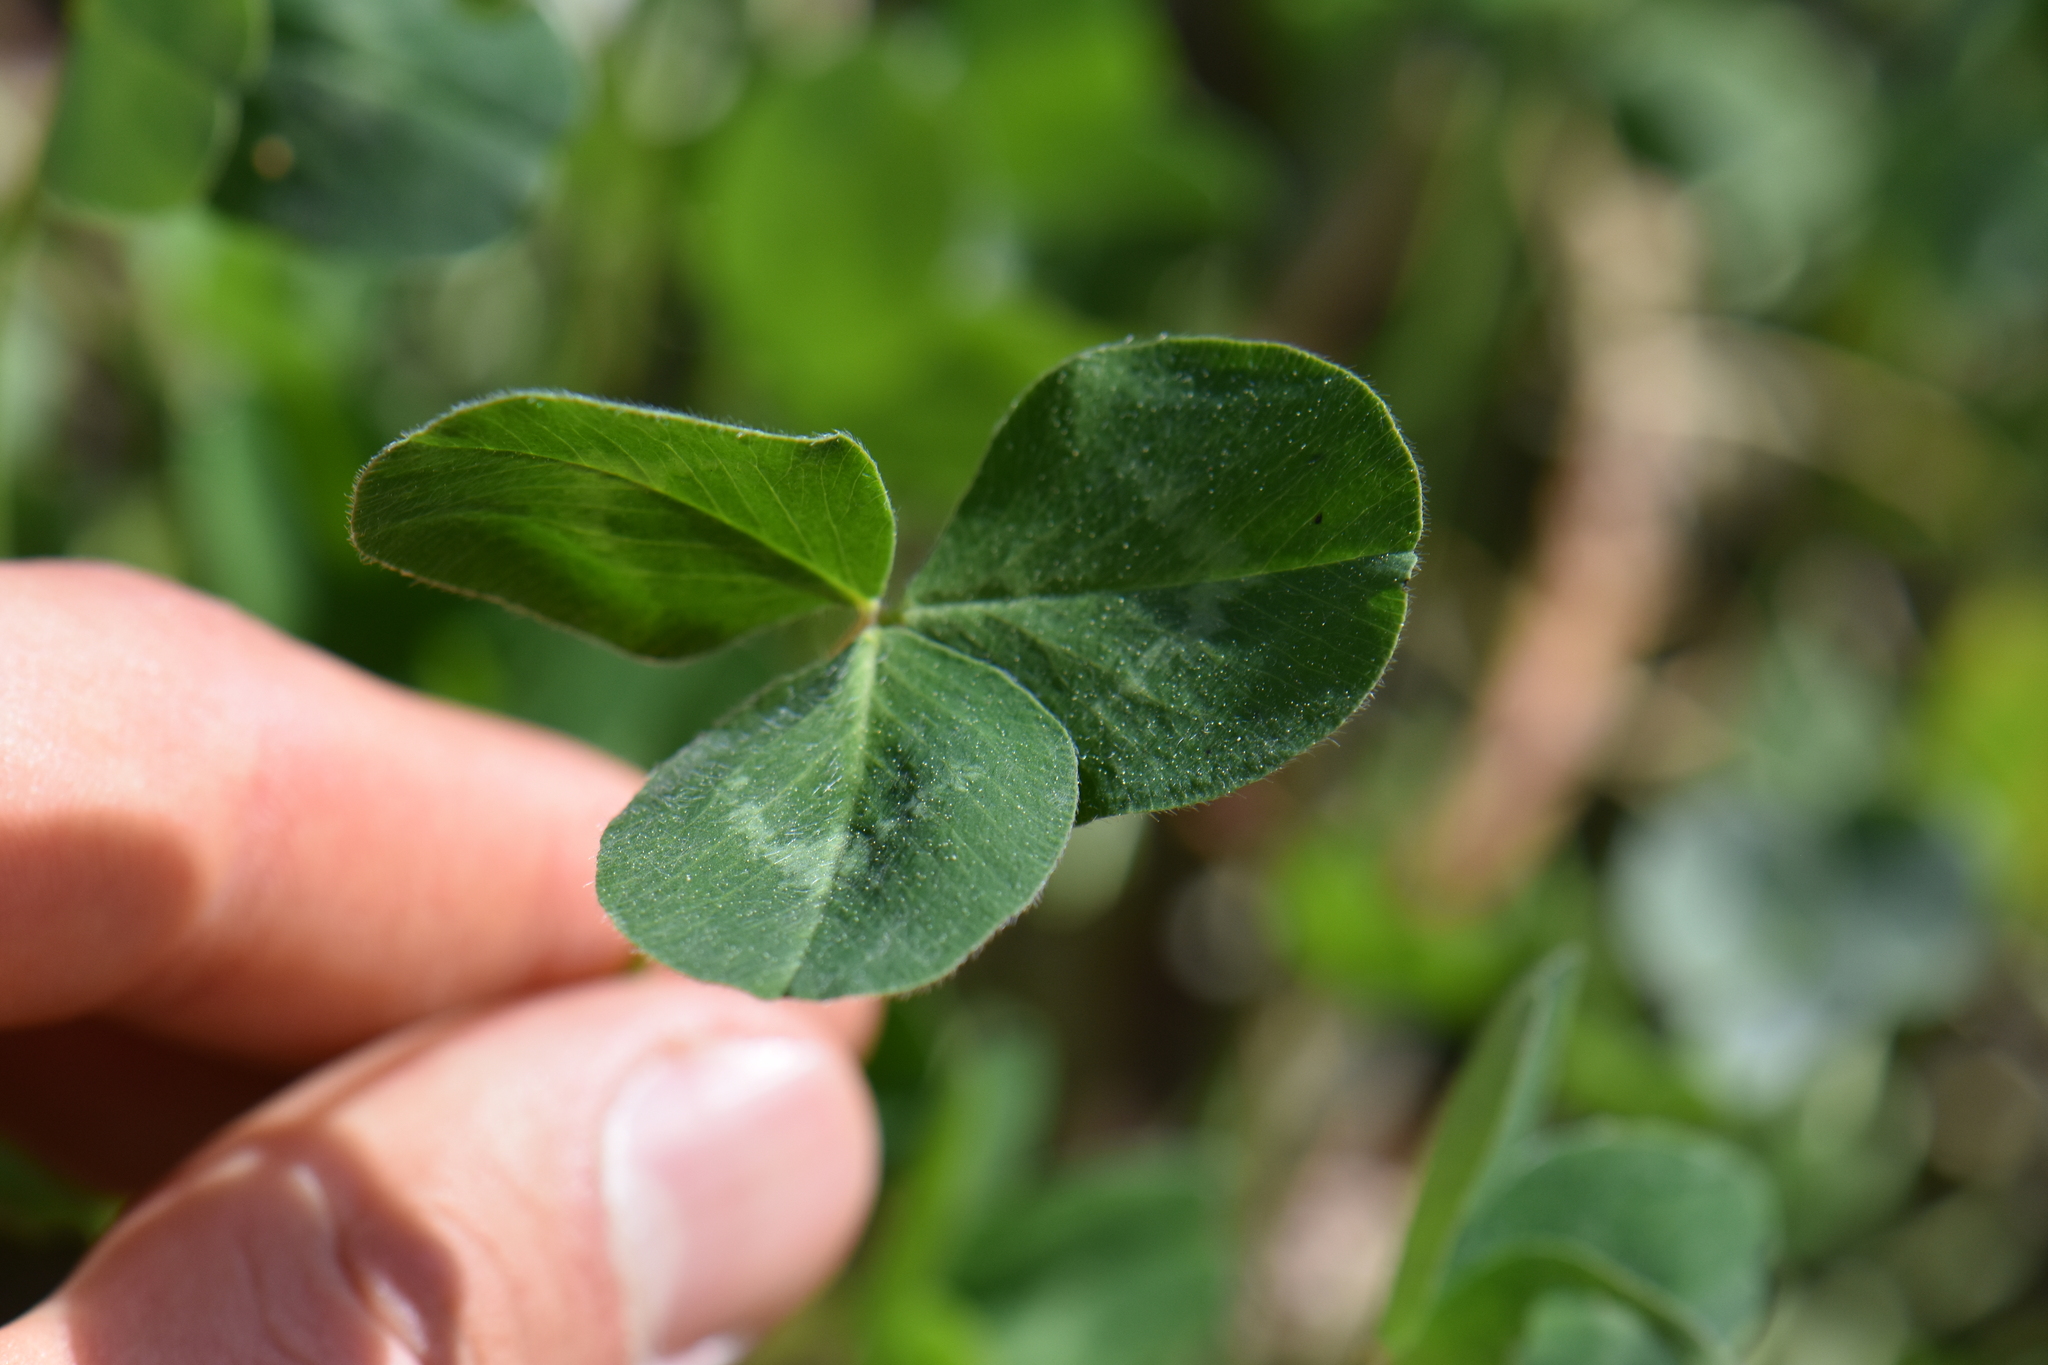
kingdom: Plantae
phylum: Tracheophyta
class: Magnoliopsida
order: Fabales
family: Fabaceae
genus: Trifolium
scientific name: Trifolium pratense
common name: Red clover
